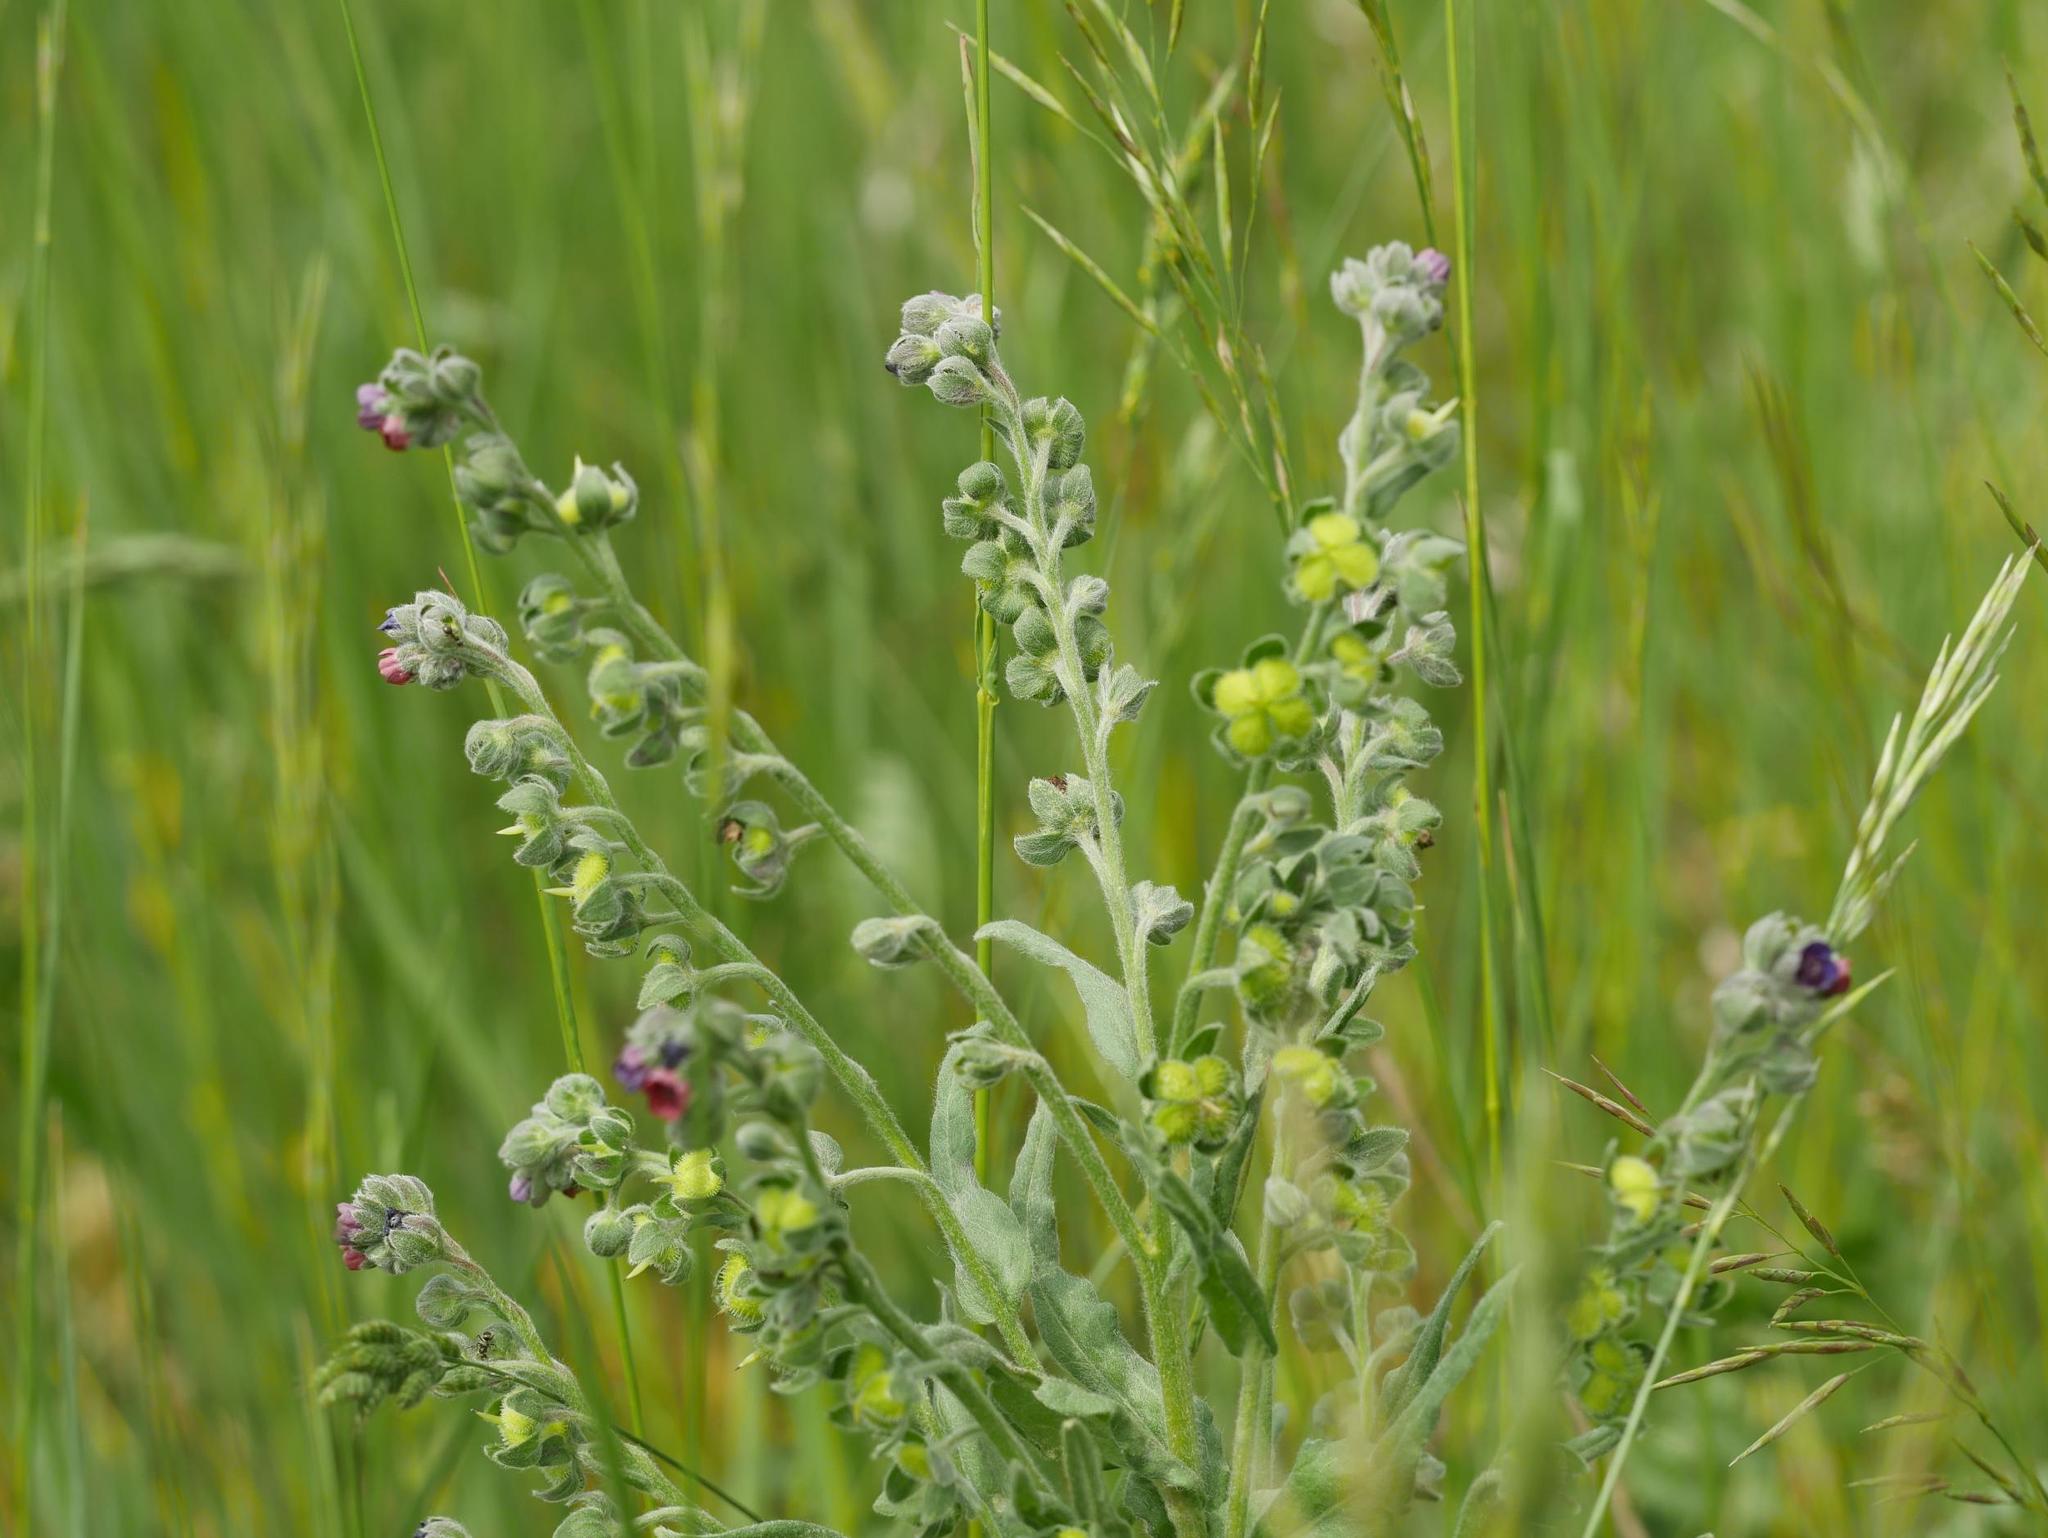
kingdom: Plantae
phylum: Tracheophyta
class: Magnoliopsida
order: Boraginales
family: Boraginaceae
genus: Cynoglossum
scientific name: Cynoglossum officinale
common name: Hound's-tongue
